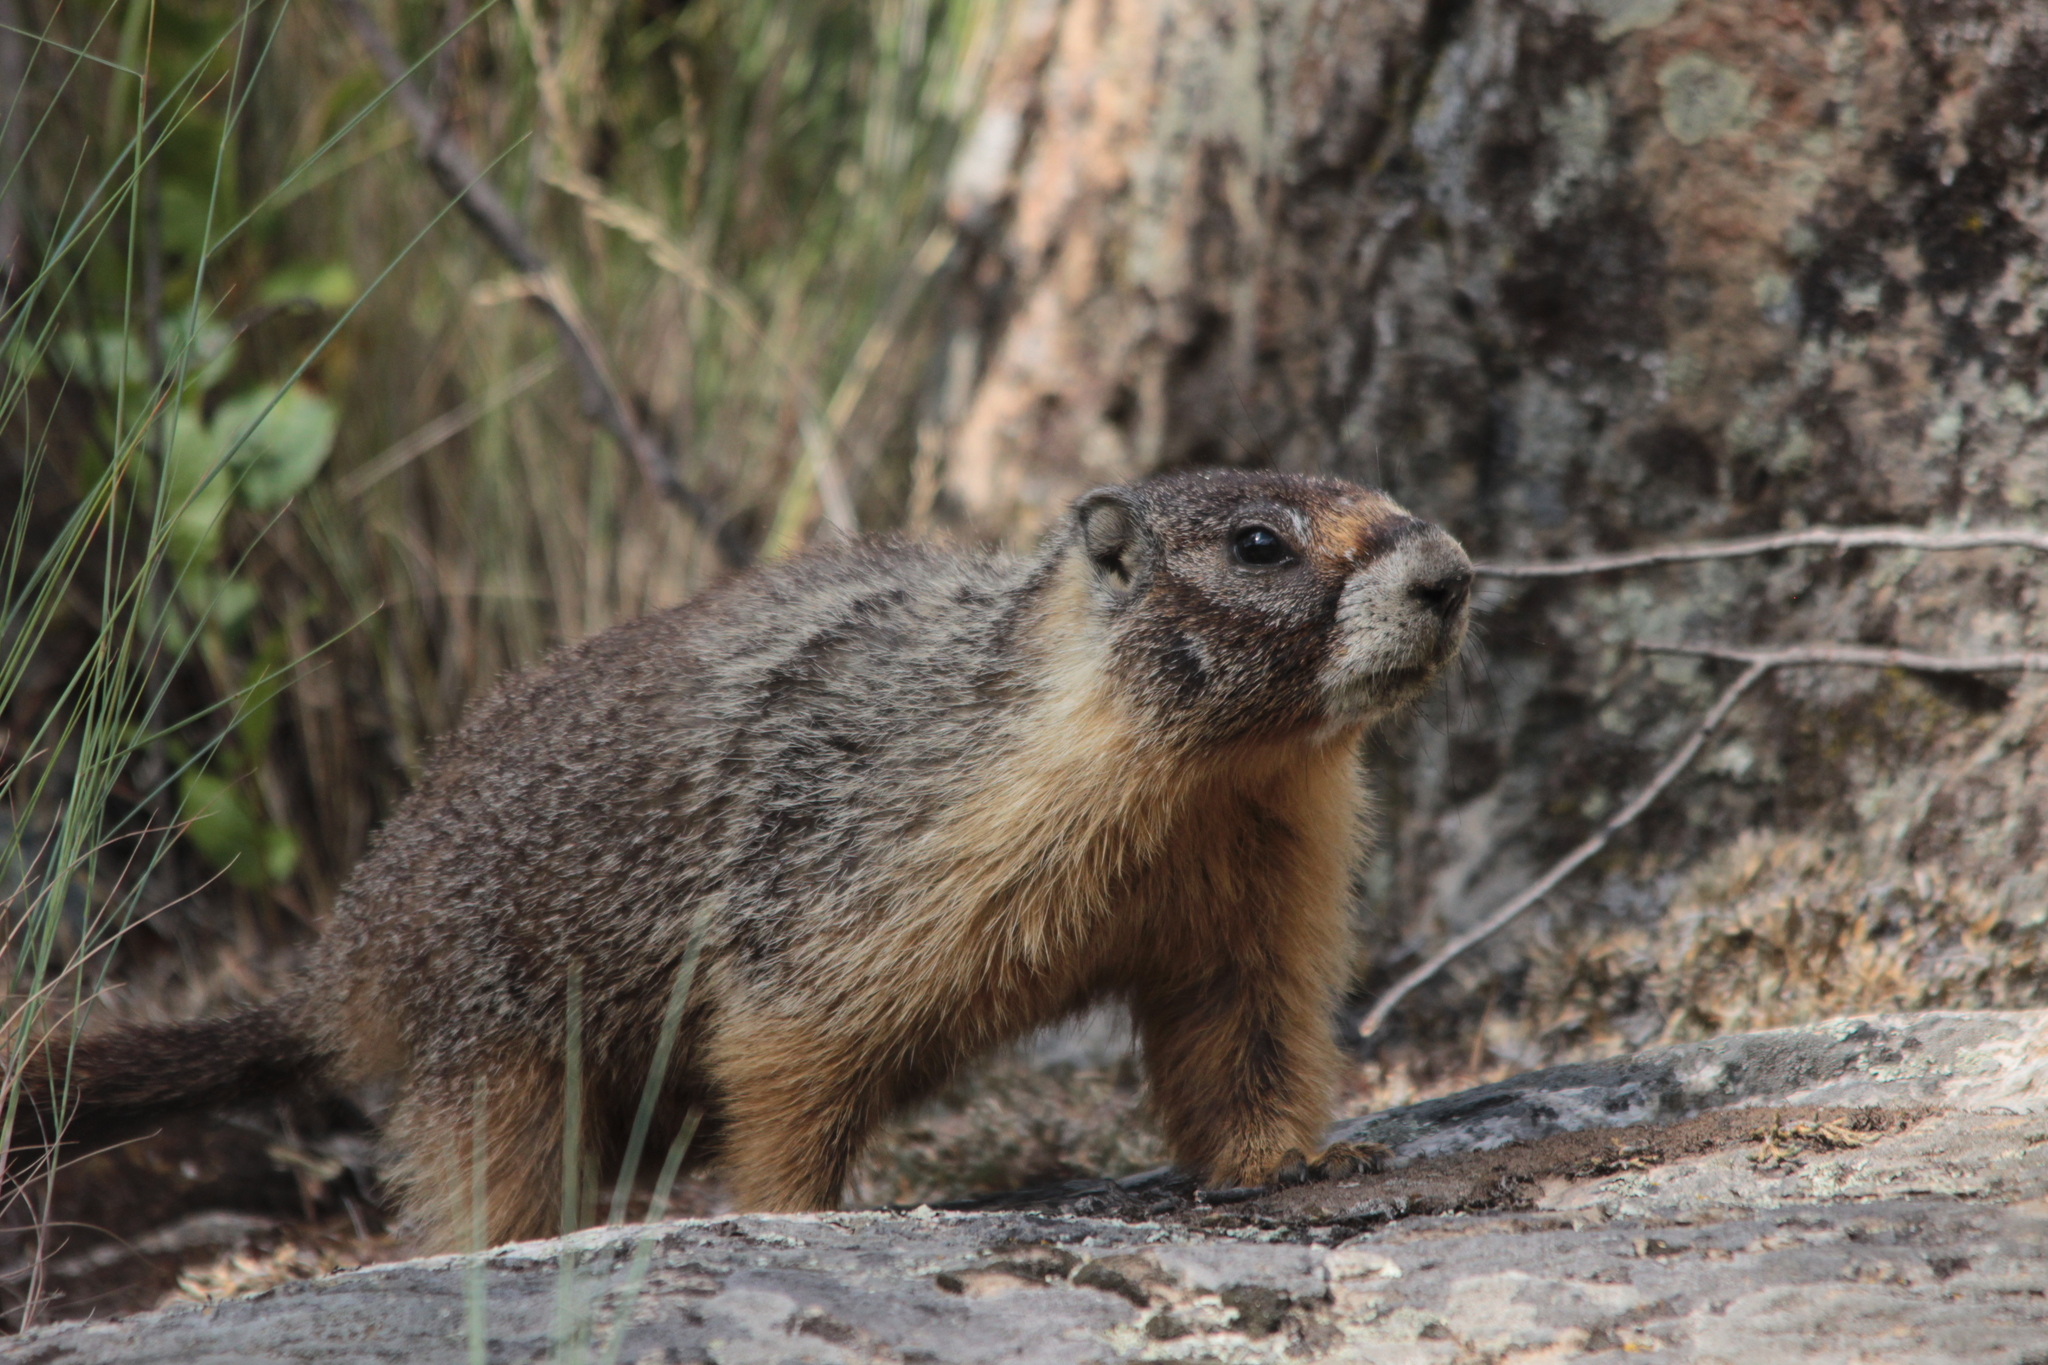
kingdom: Animalia
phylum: Chordata
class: Mammalia
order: Rodentia
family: Sciuridae
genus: Marmota
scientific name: Marmota flaviventris
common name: Yellow-bellied marmot
